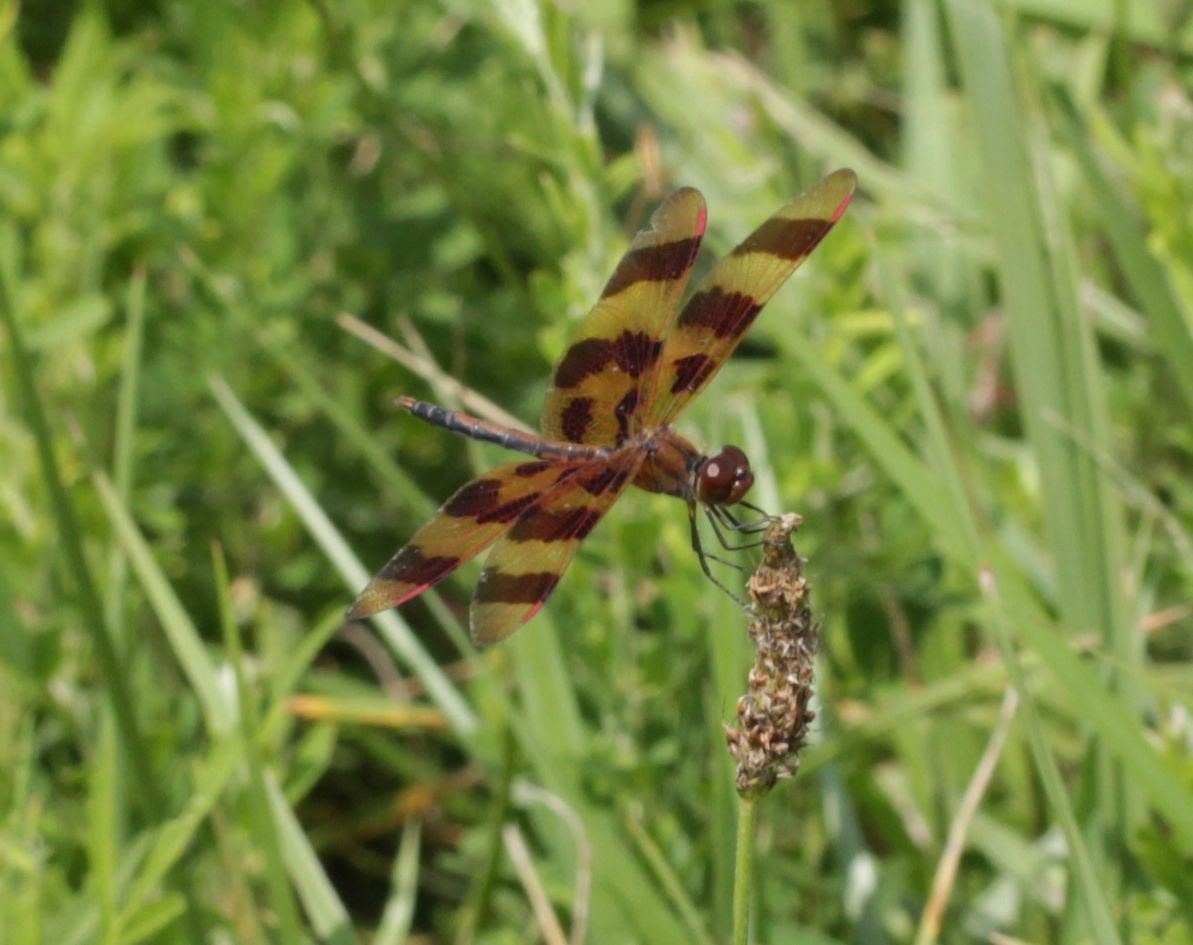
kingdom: Animalia
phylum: Arthropoda
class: Insecta
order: Odonata
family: Libellulidae
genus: Celithemis
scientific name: Celithemis eponina
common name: Halloween pennant
